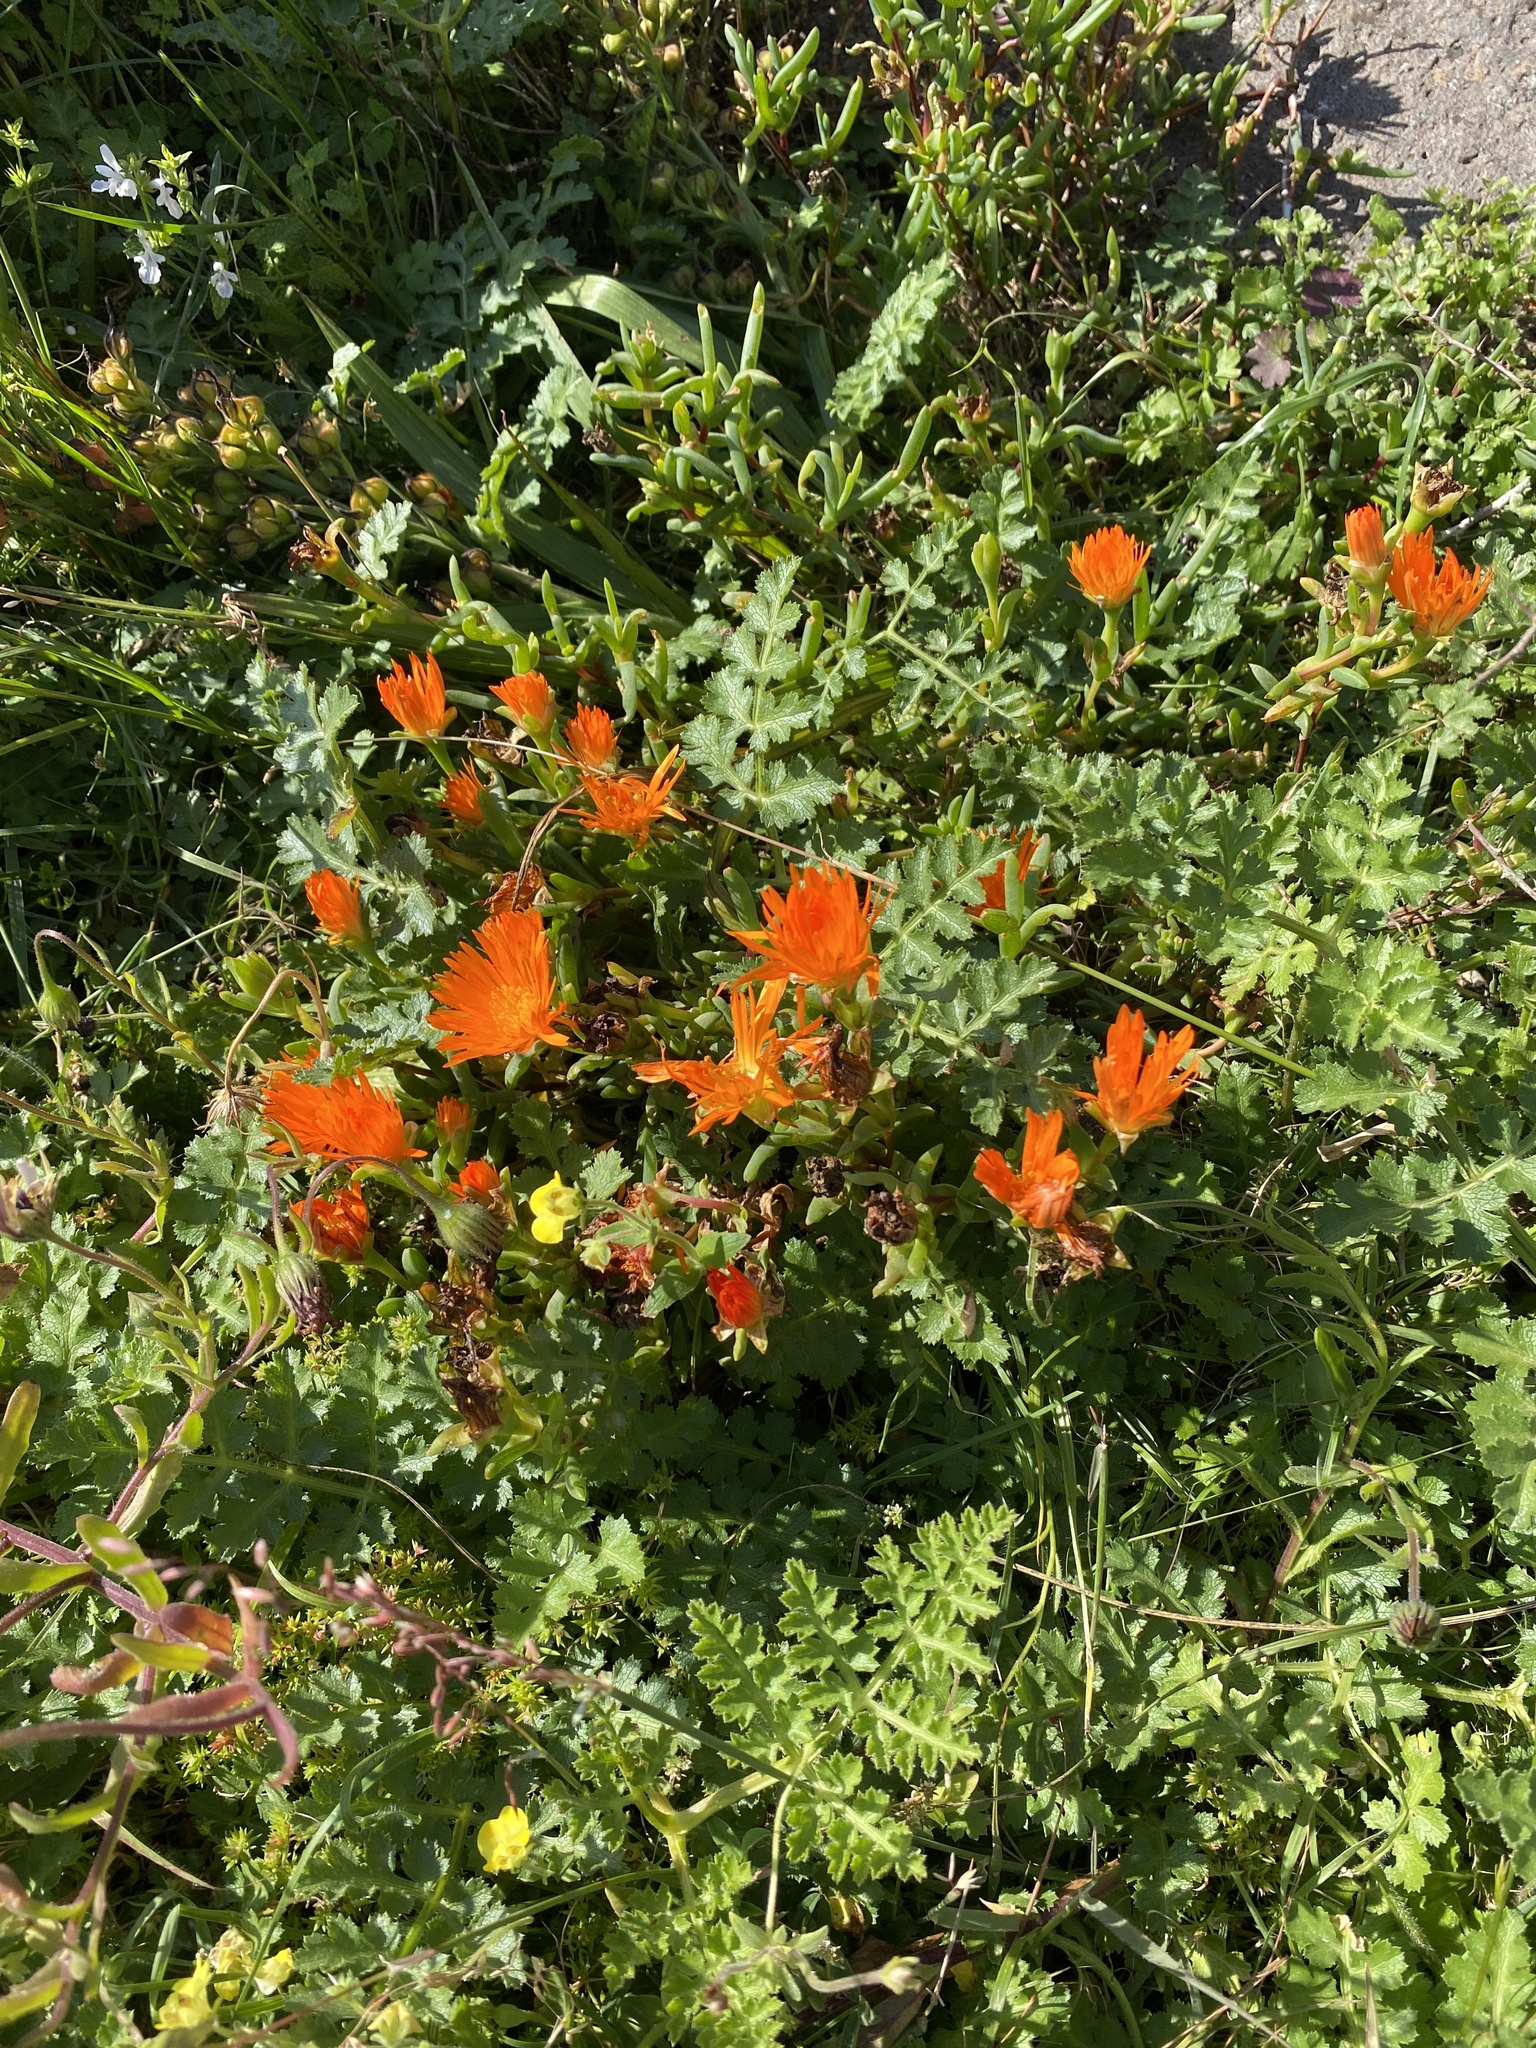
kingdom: Plantae
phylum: Tracheophyta
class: Magnoliopsida
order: Caryophyllales
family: Aizoaceae
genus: Lampranthus
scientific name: Lampranthus aureus
